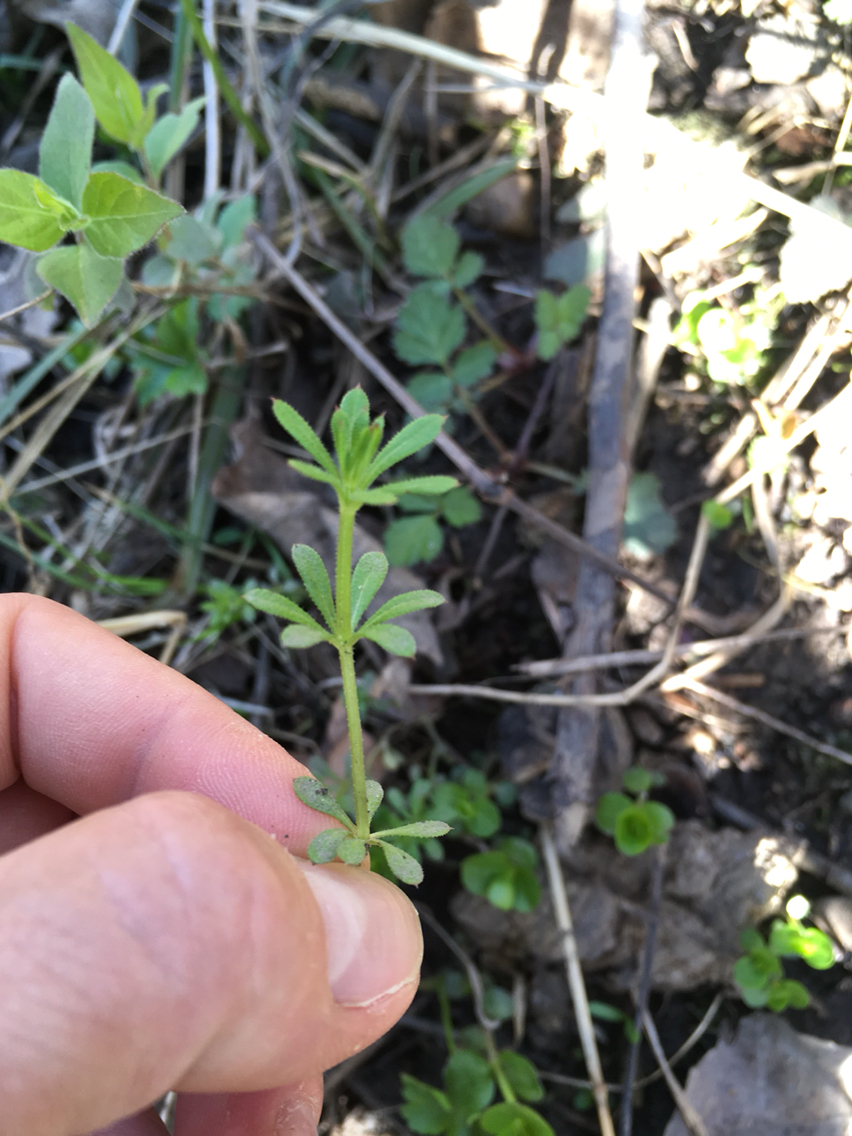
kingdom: Plantae
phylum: Tracheophyta
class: Magnoliopsida
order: Gentianales
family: Rubiaceae
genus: Galium
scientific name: Galium aparine
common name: Cleavers
